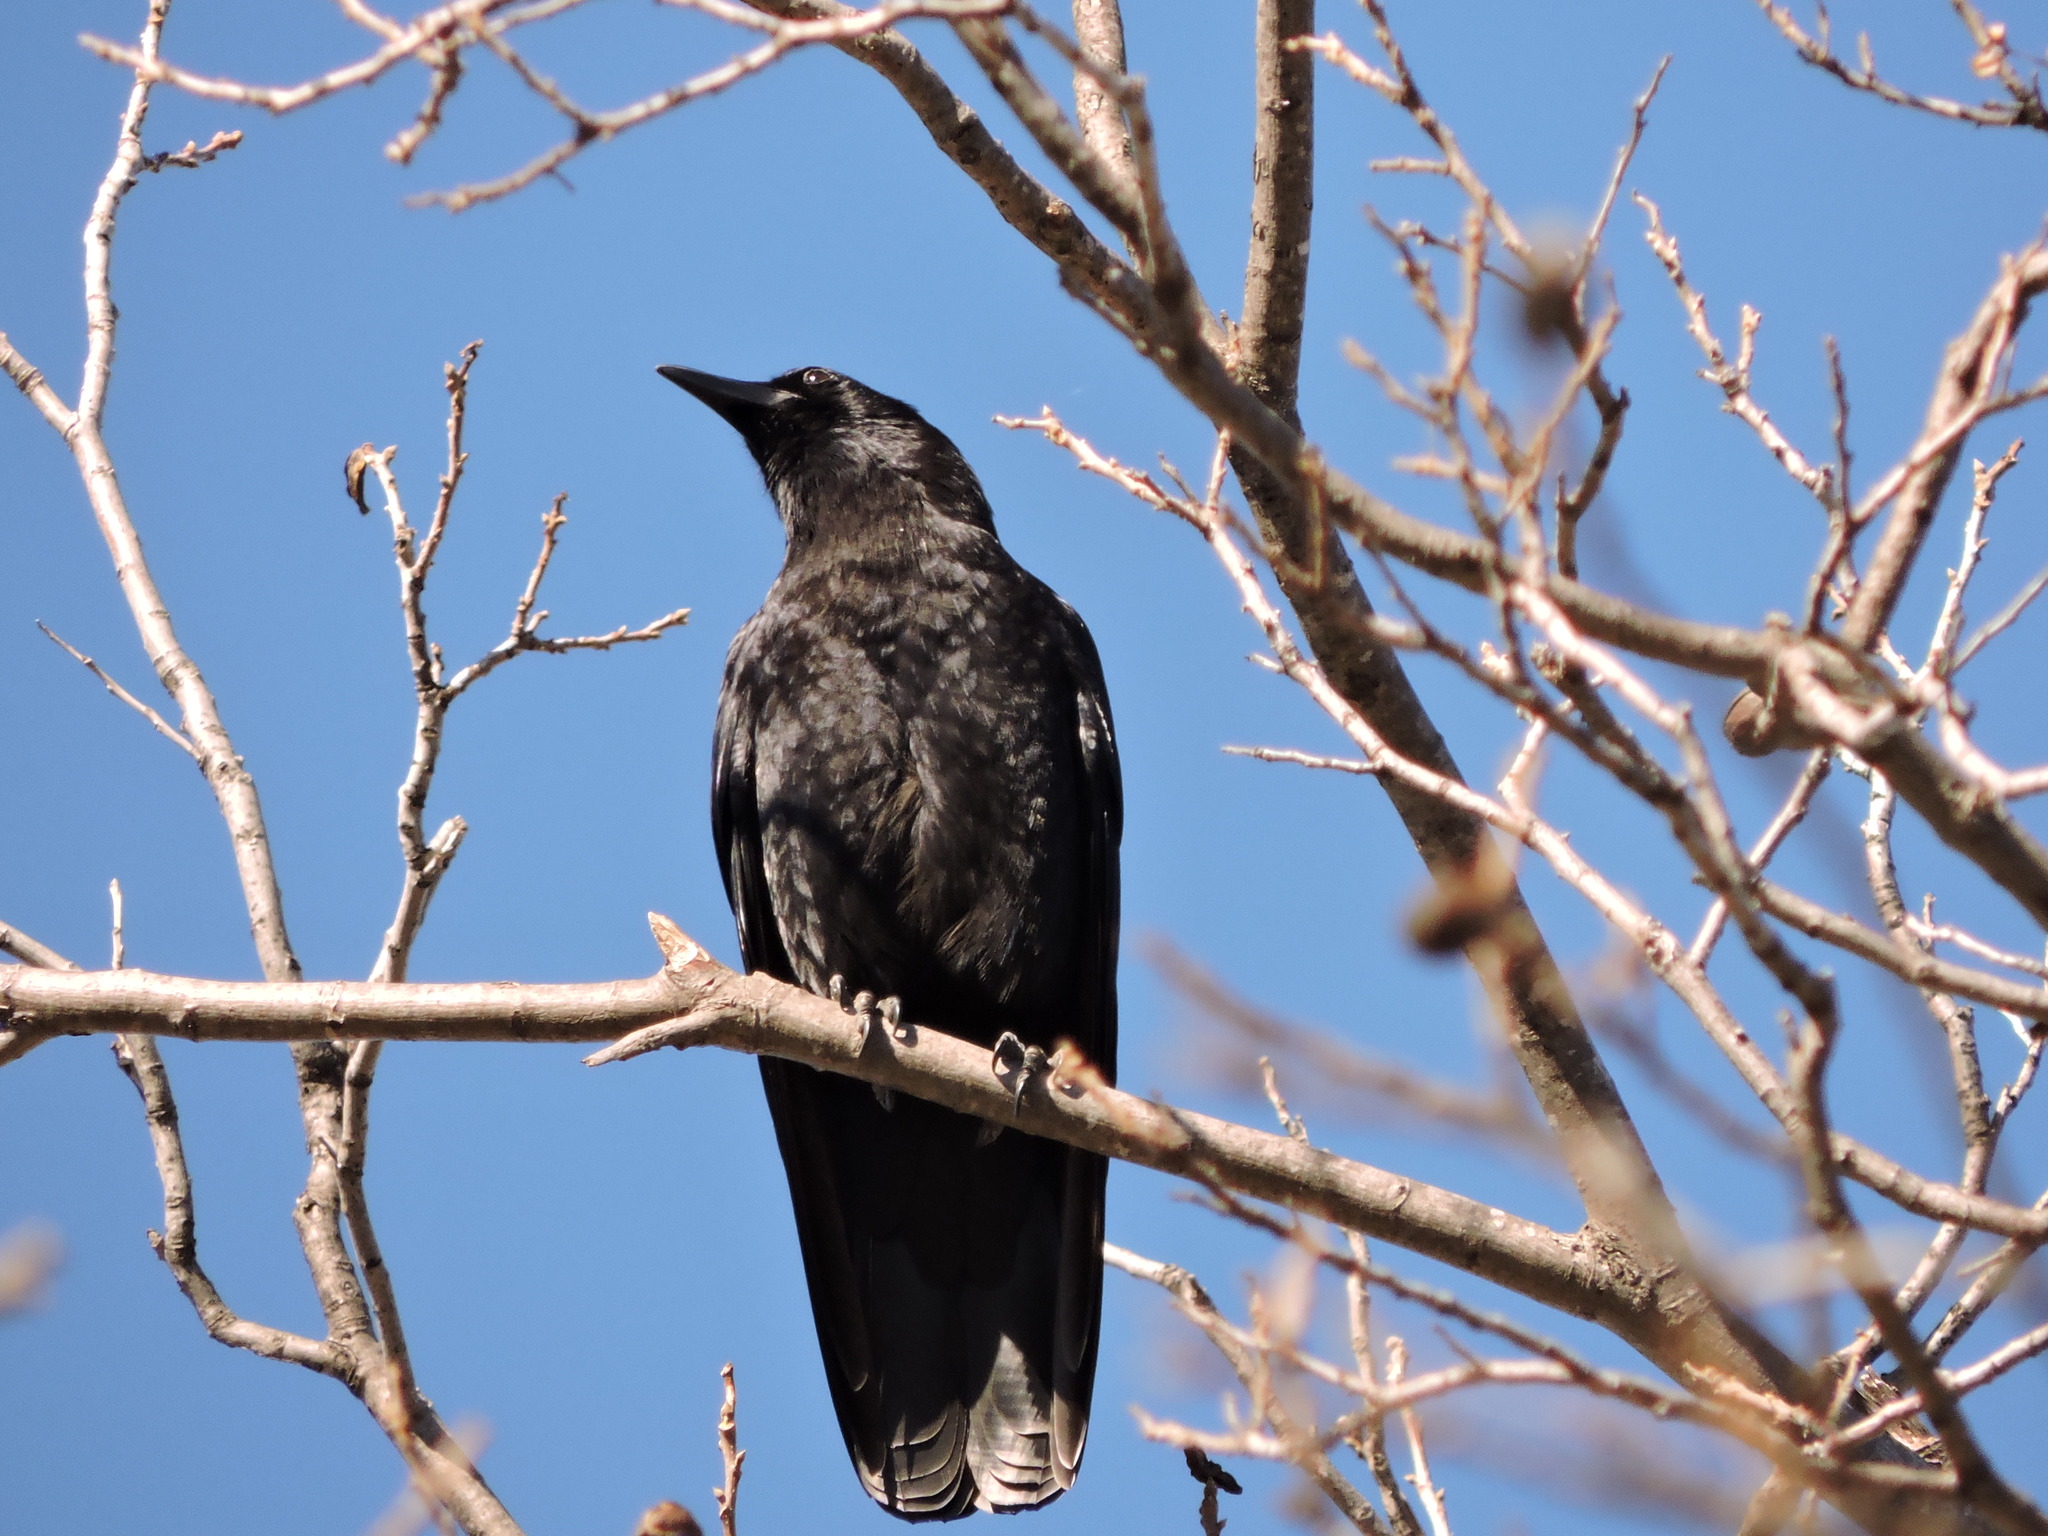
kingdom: Animalia
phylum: Chordata
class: Aves
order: Passeriformes
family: Corvidae
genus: Corvus
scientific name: Corvus brachyrhynchos
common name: American crow
